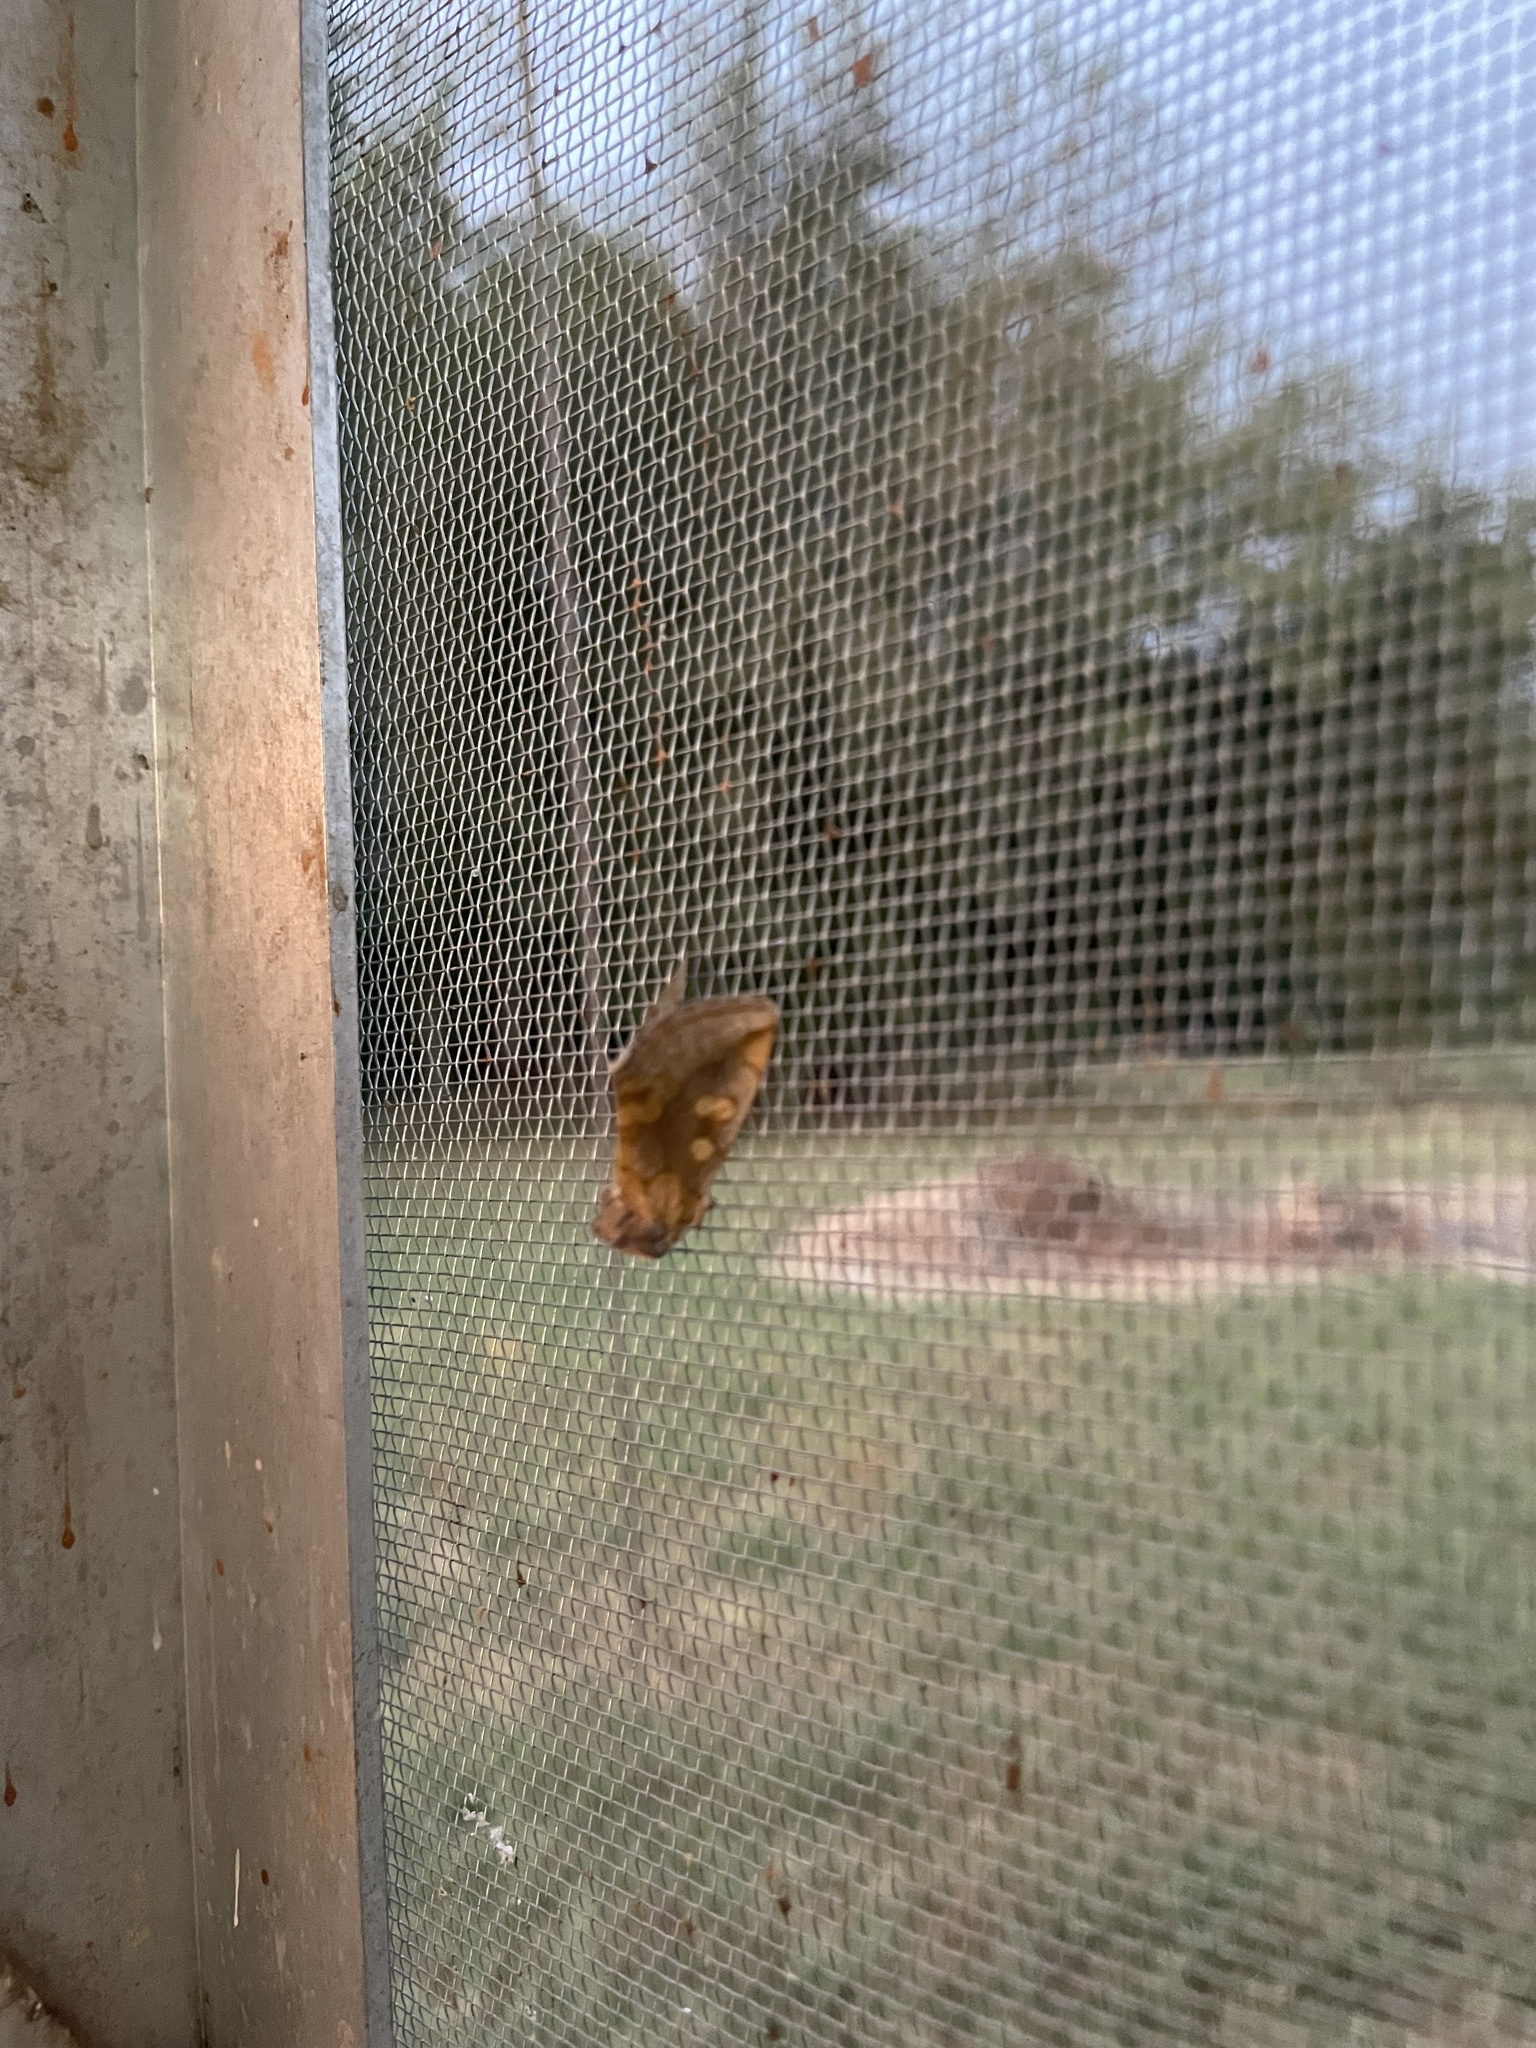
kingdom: Animalia
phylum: Arthropoda
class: Insecta
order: Lepidoptera
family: Noctuidae
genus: Basilodes
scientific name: Basilodes chrysopis
